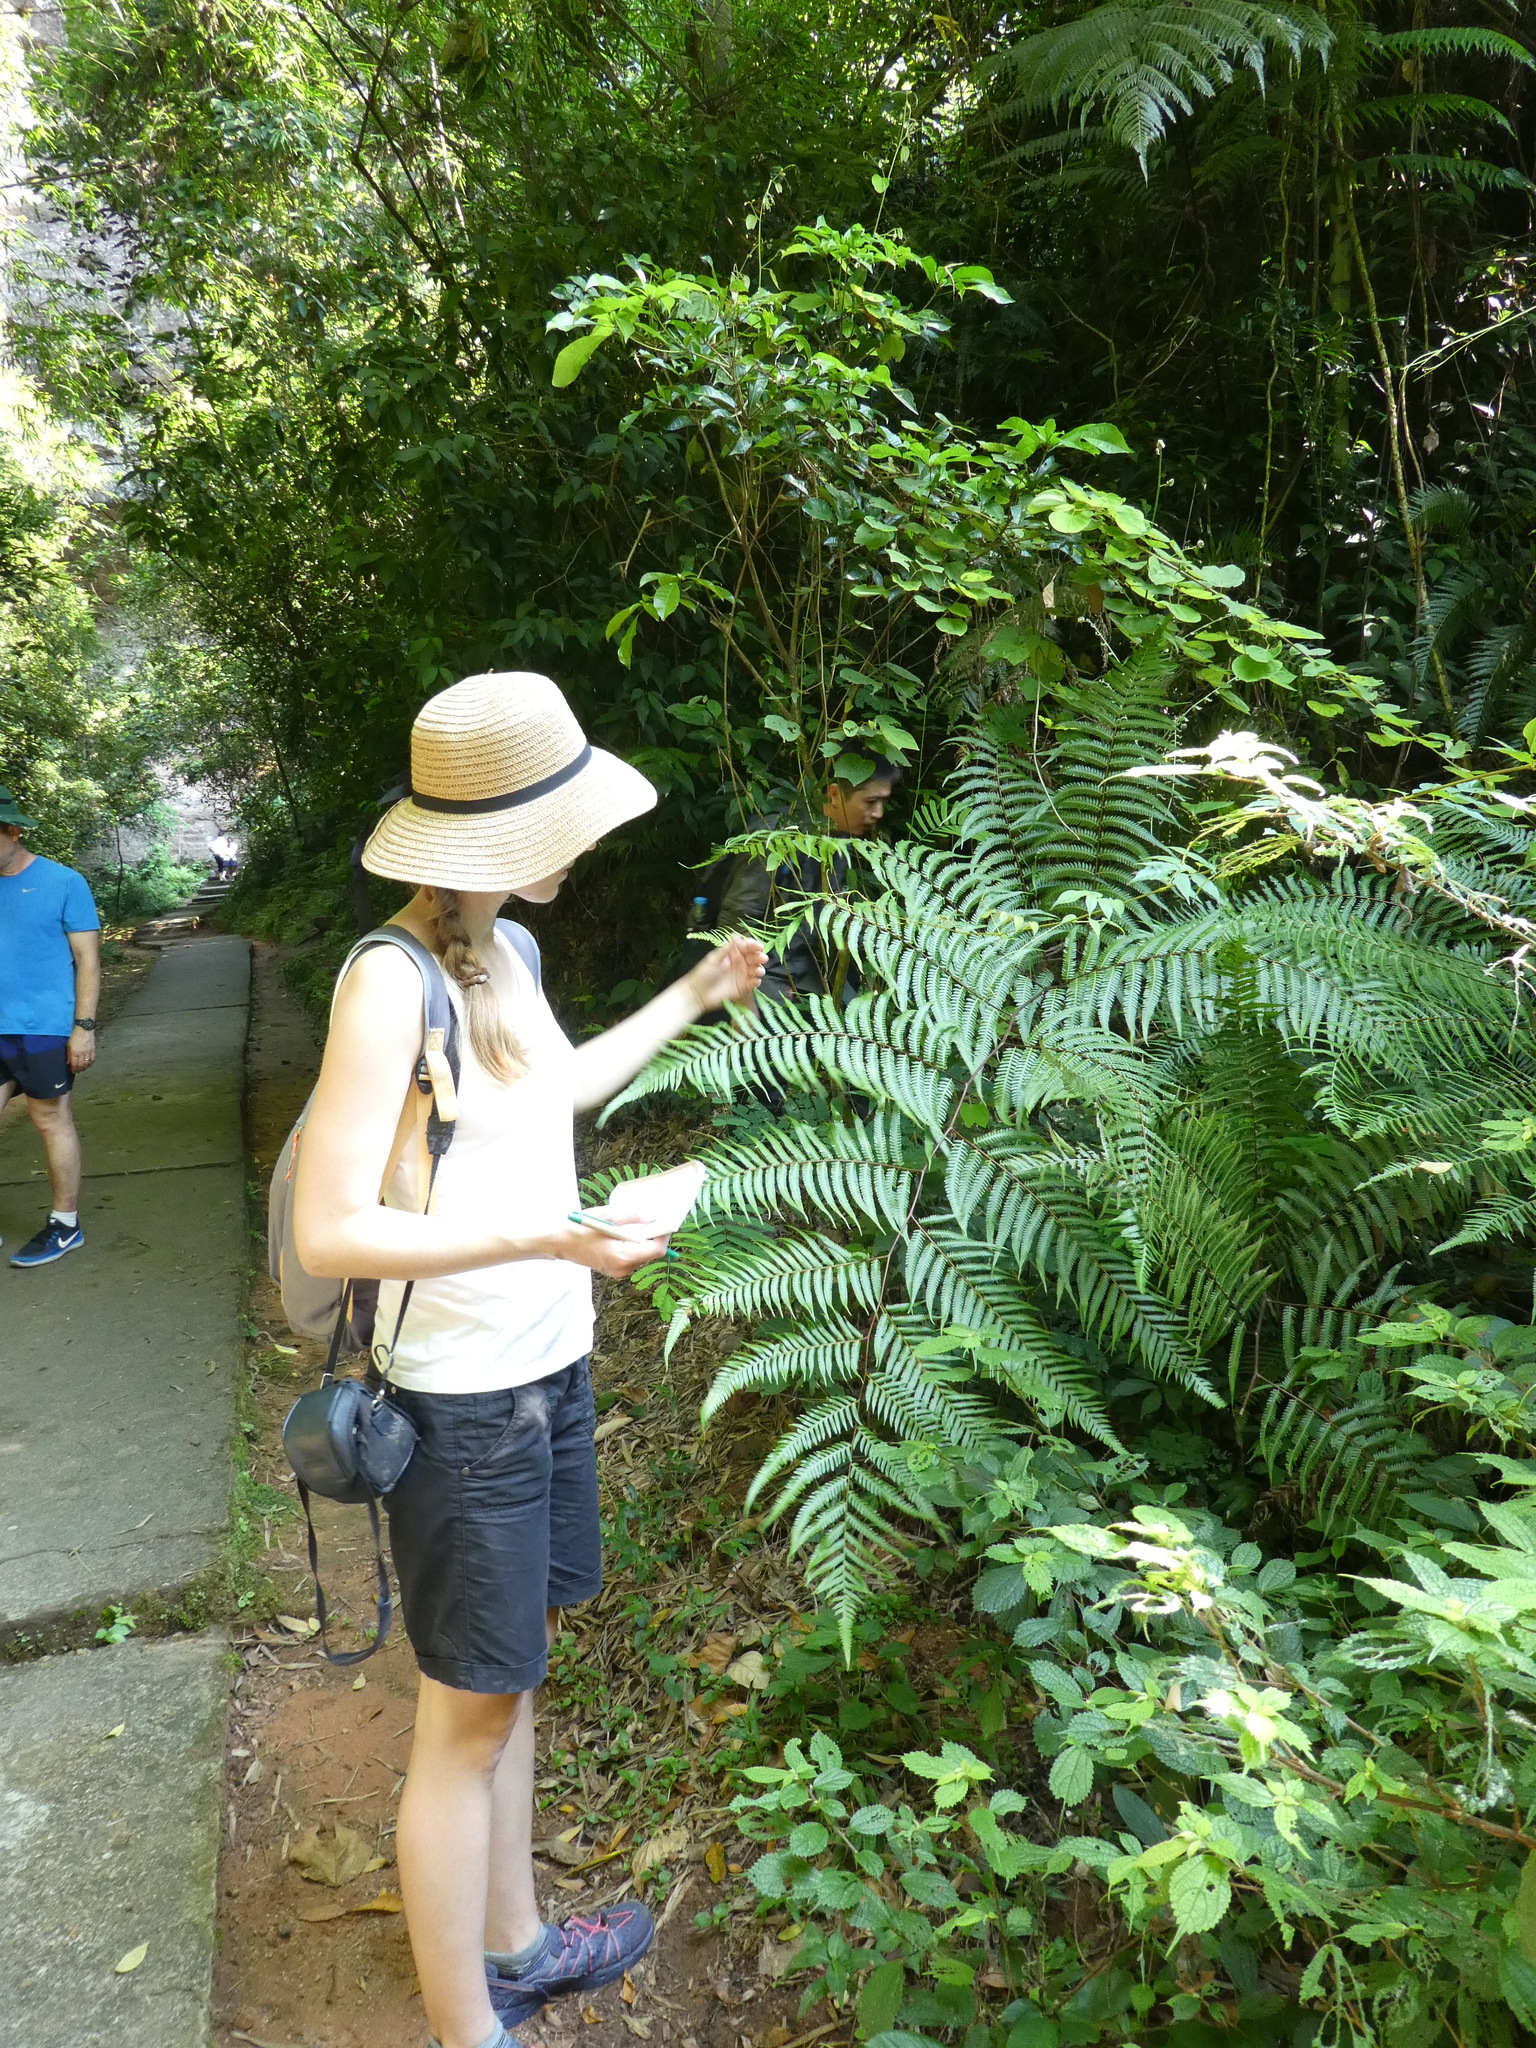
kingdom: Plantae
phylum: Tracheophyta
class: Polypodiopsida
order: Cyatheales
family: Cibotiaceae
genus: Cibotium
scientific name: Cibotium barometz
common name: Scythian-lamb
